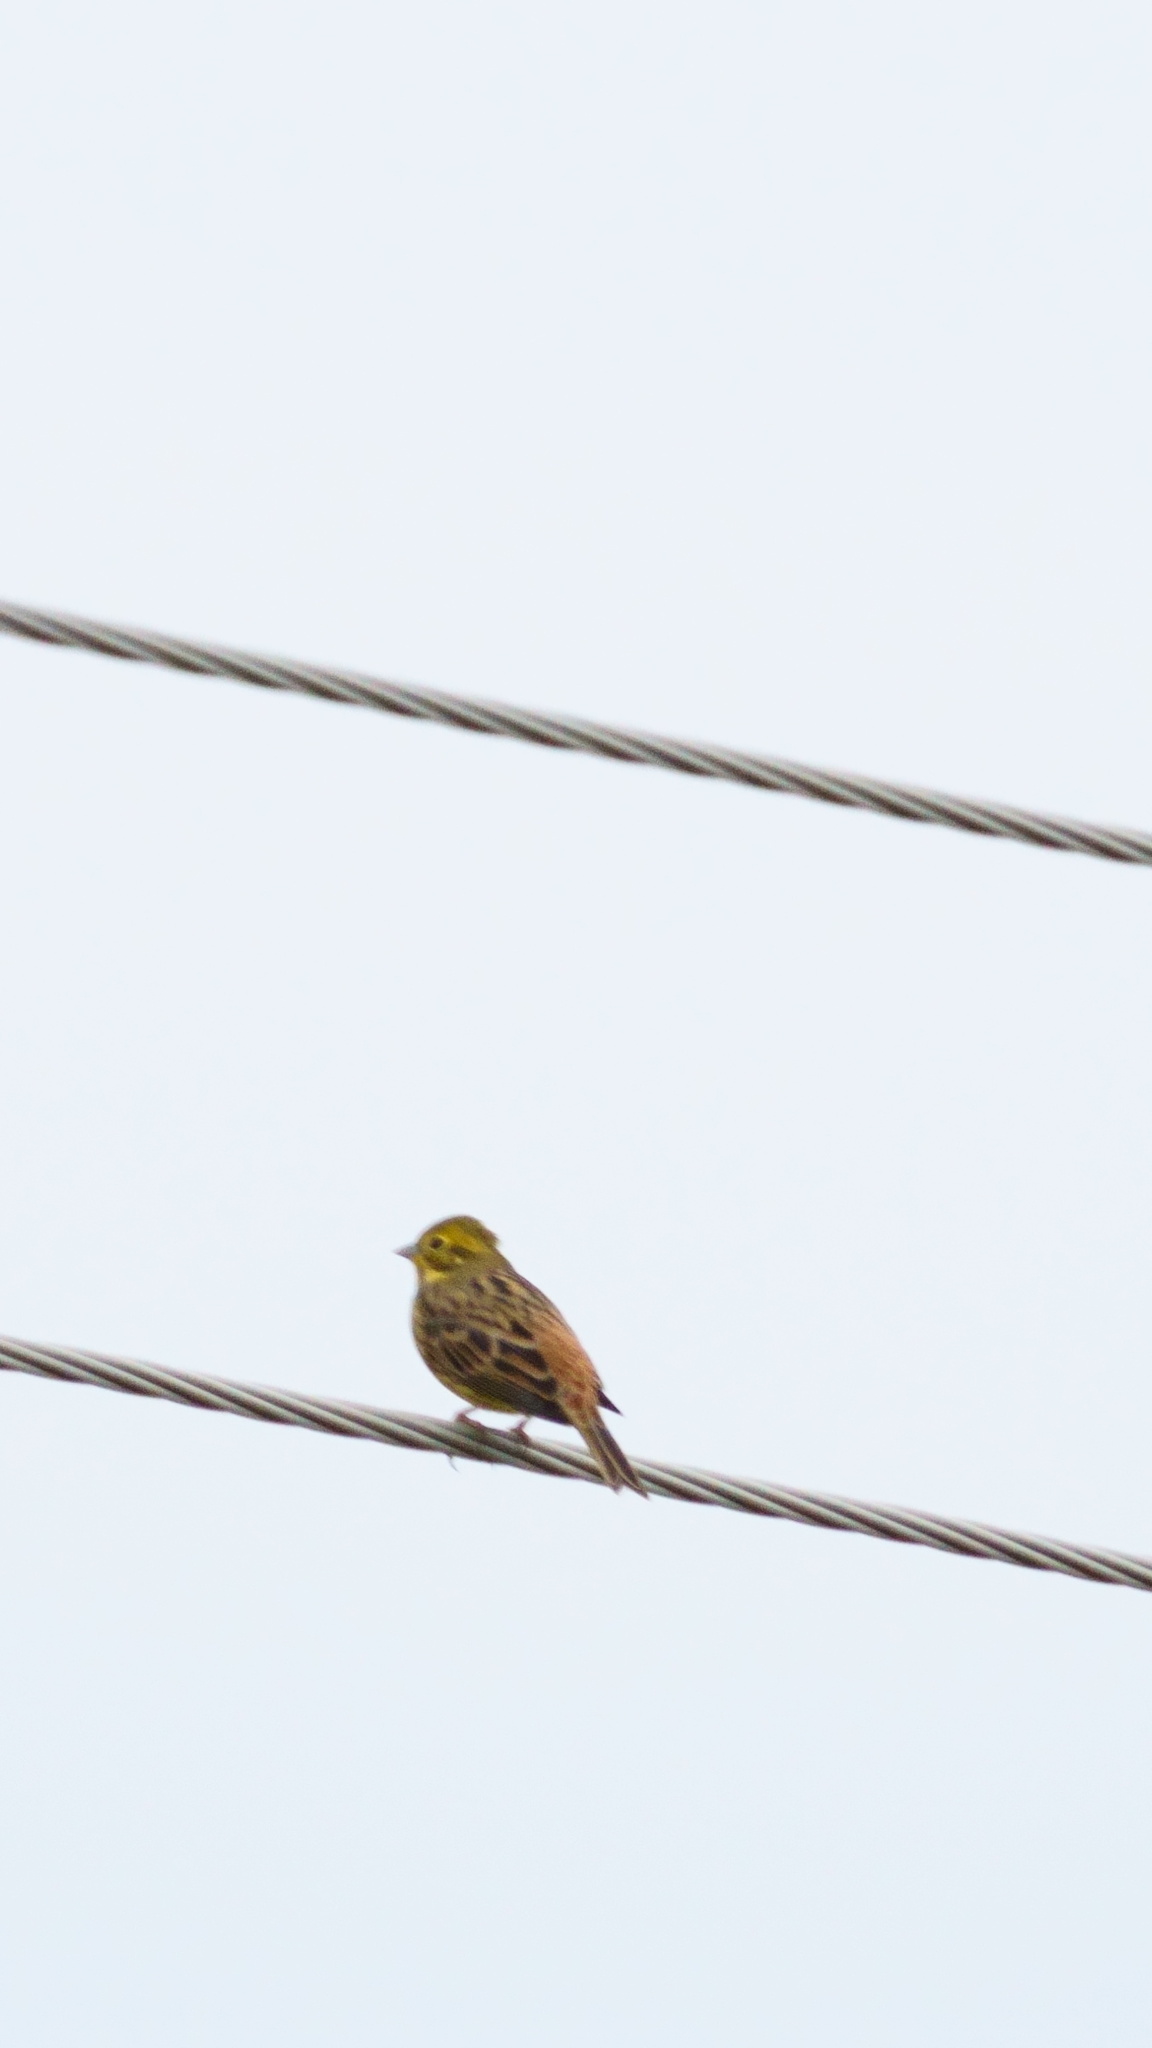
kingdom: Animalia
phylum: Chordata
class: Aves
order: Passeriformes
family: Emberizidae
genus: Emberiza
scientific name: Emberiza citrinella
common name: Yellowhammer
